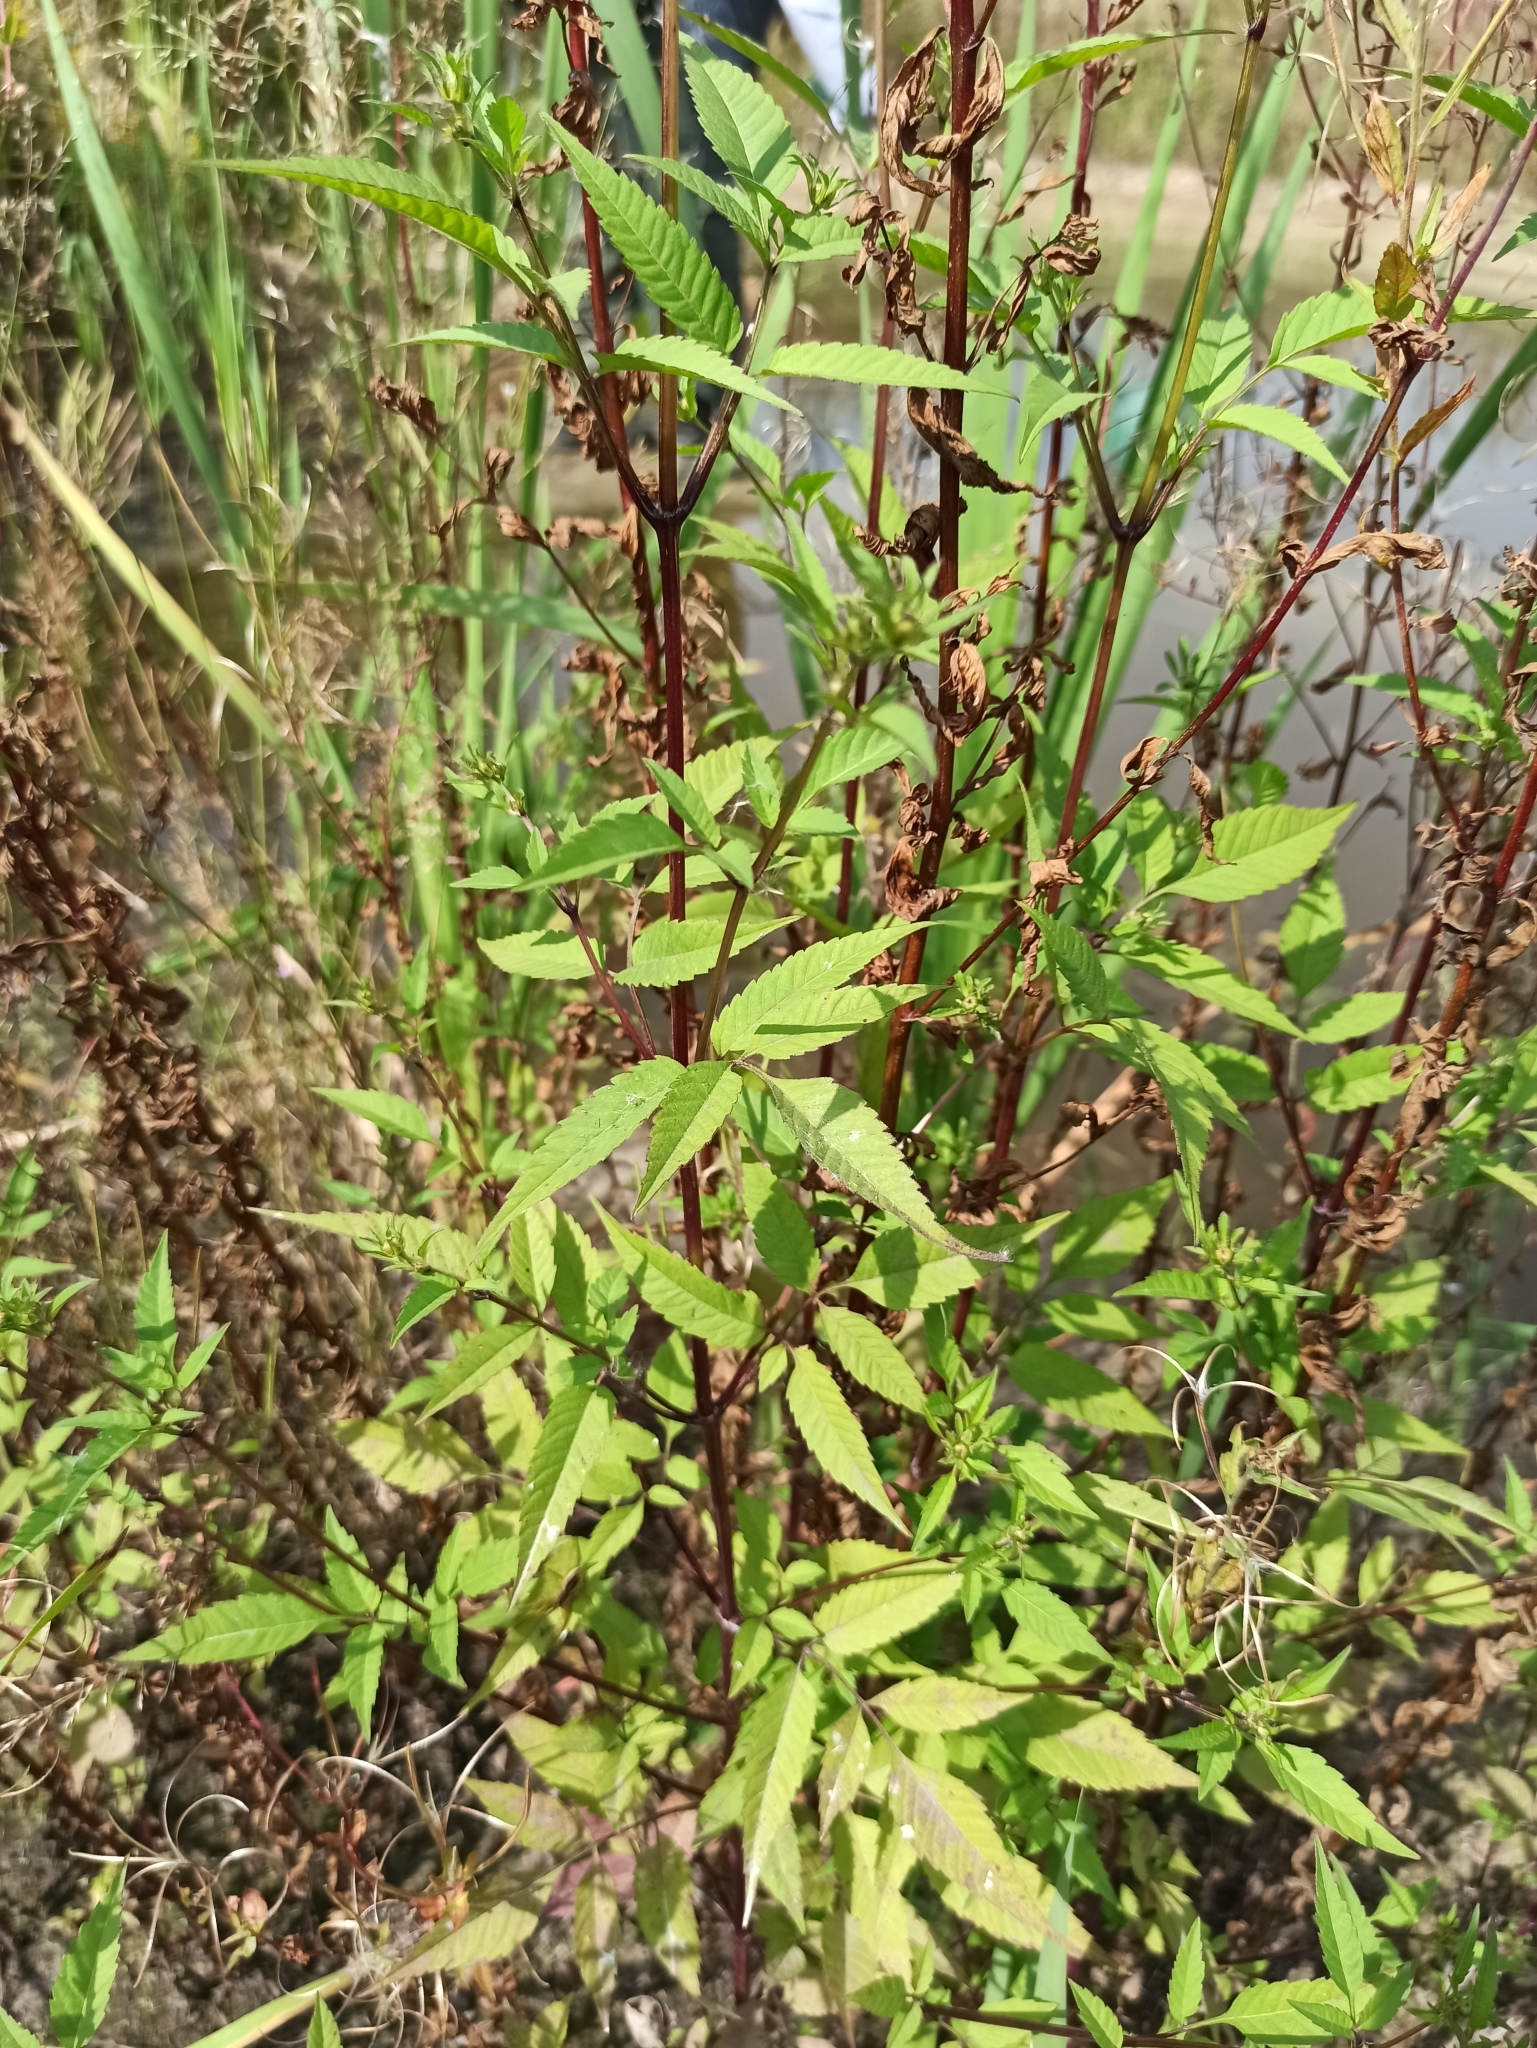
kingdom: Plantae
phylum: Tracheophyta
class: Magnoliopsida
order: Asterales
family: Asteraceae
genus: Bidens
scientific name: Bidens frondosa
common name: Beggarticks
